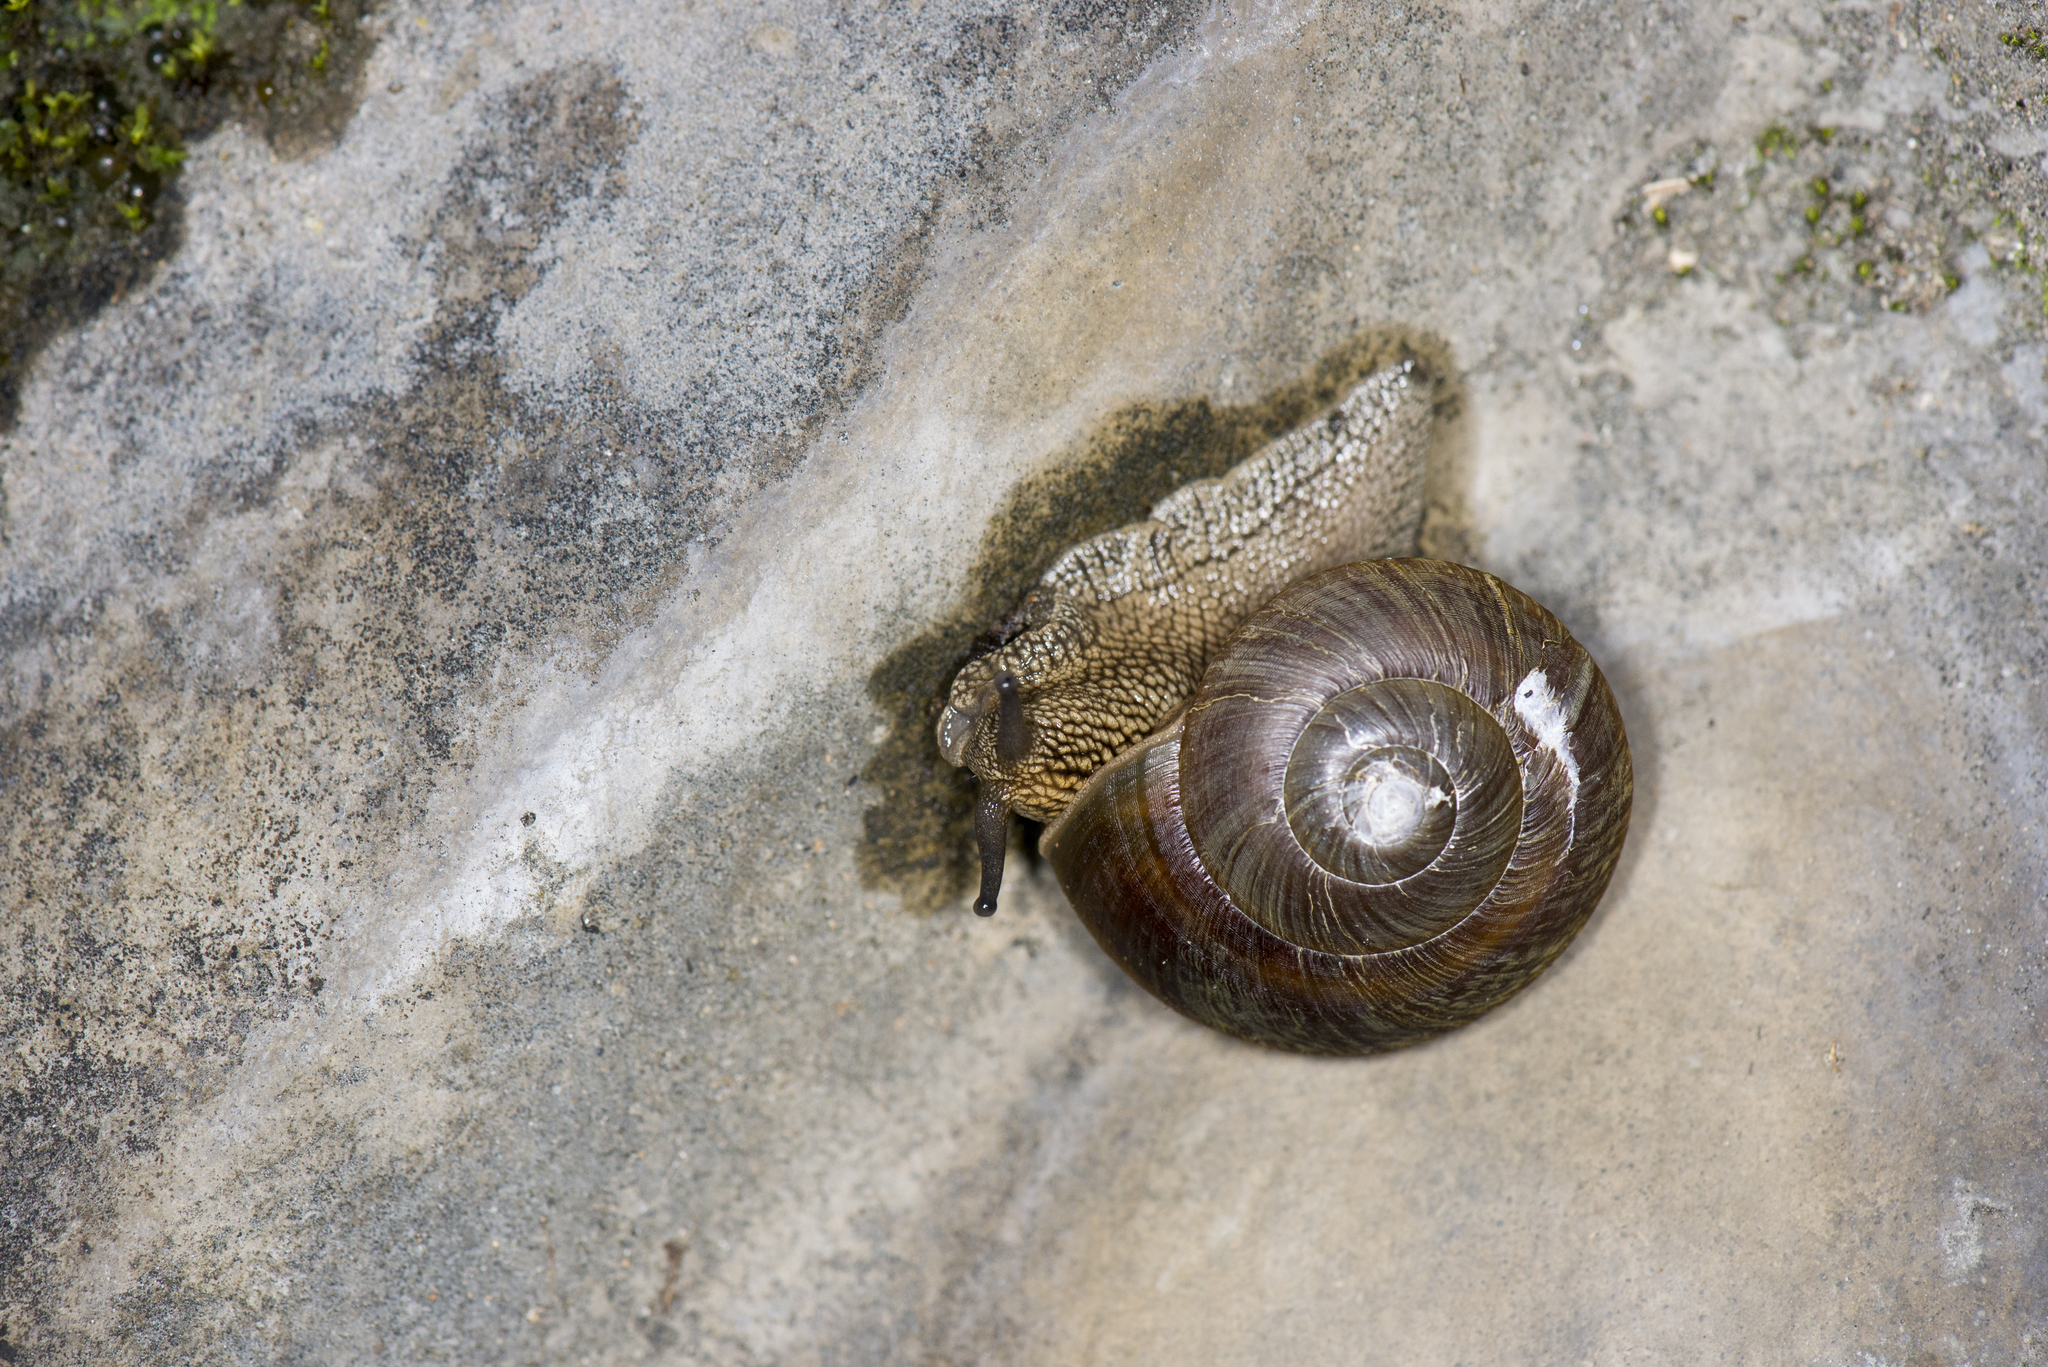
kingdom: Animalia
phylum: Mollusca
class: Gastropoda
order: Stylommatophora
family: Camaenidae
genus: Nesiohelix
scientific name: Nesiohelix swinhoei
